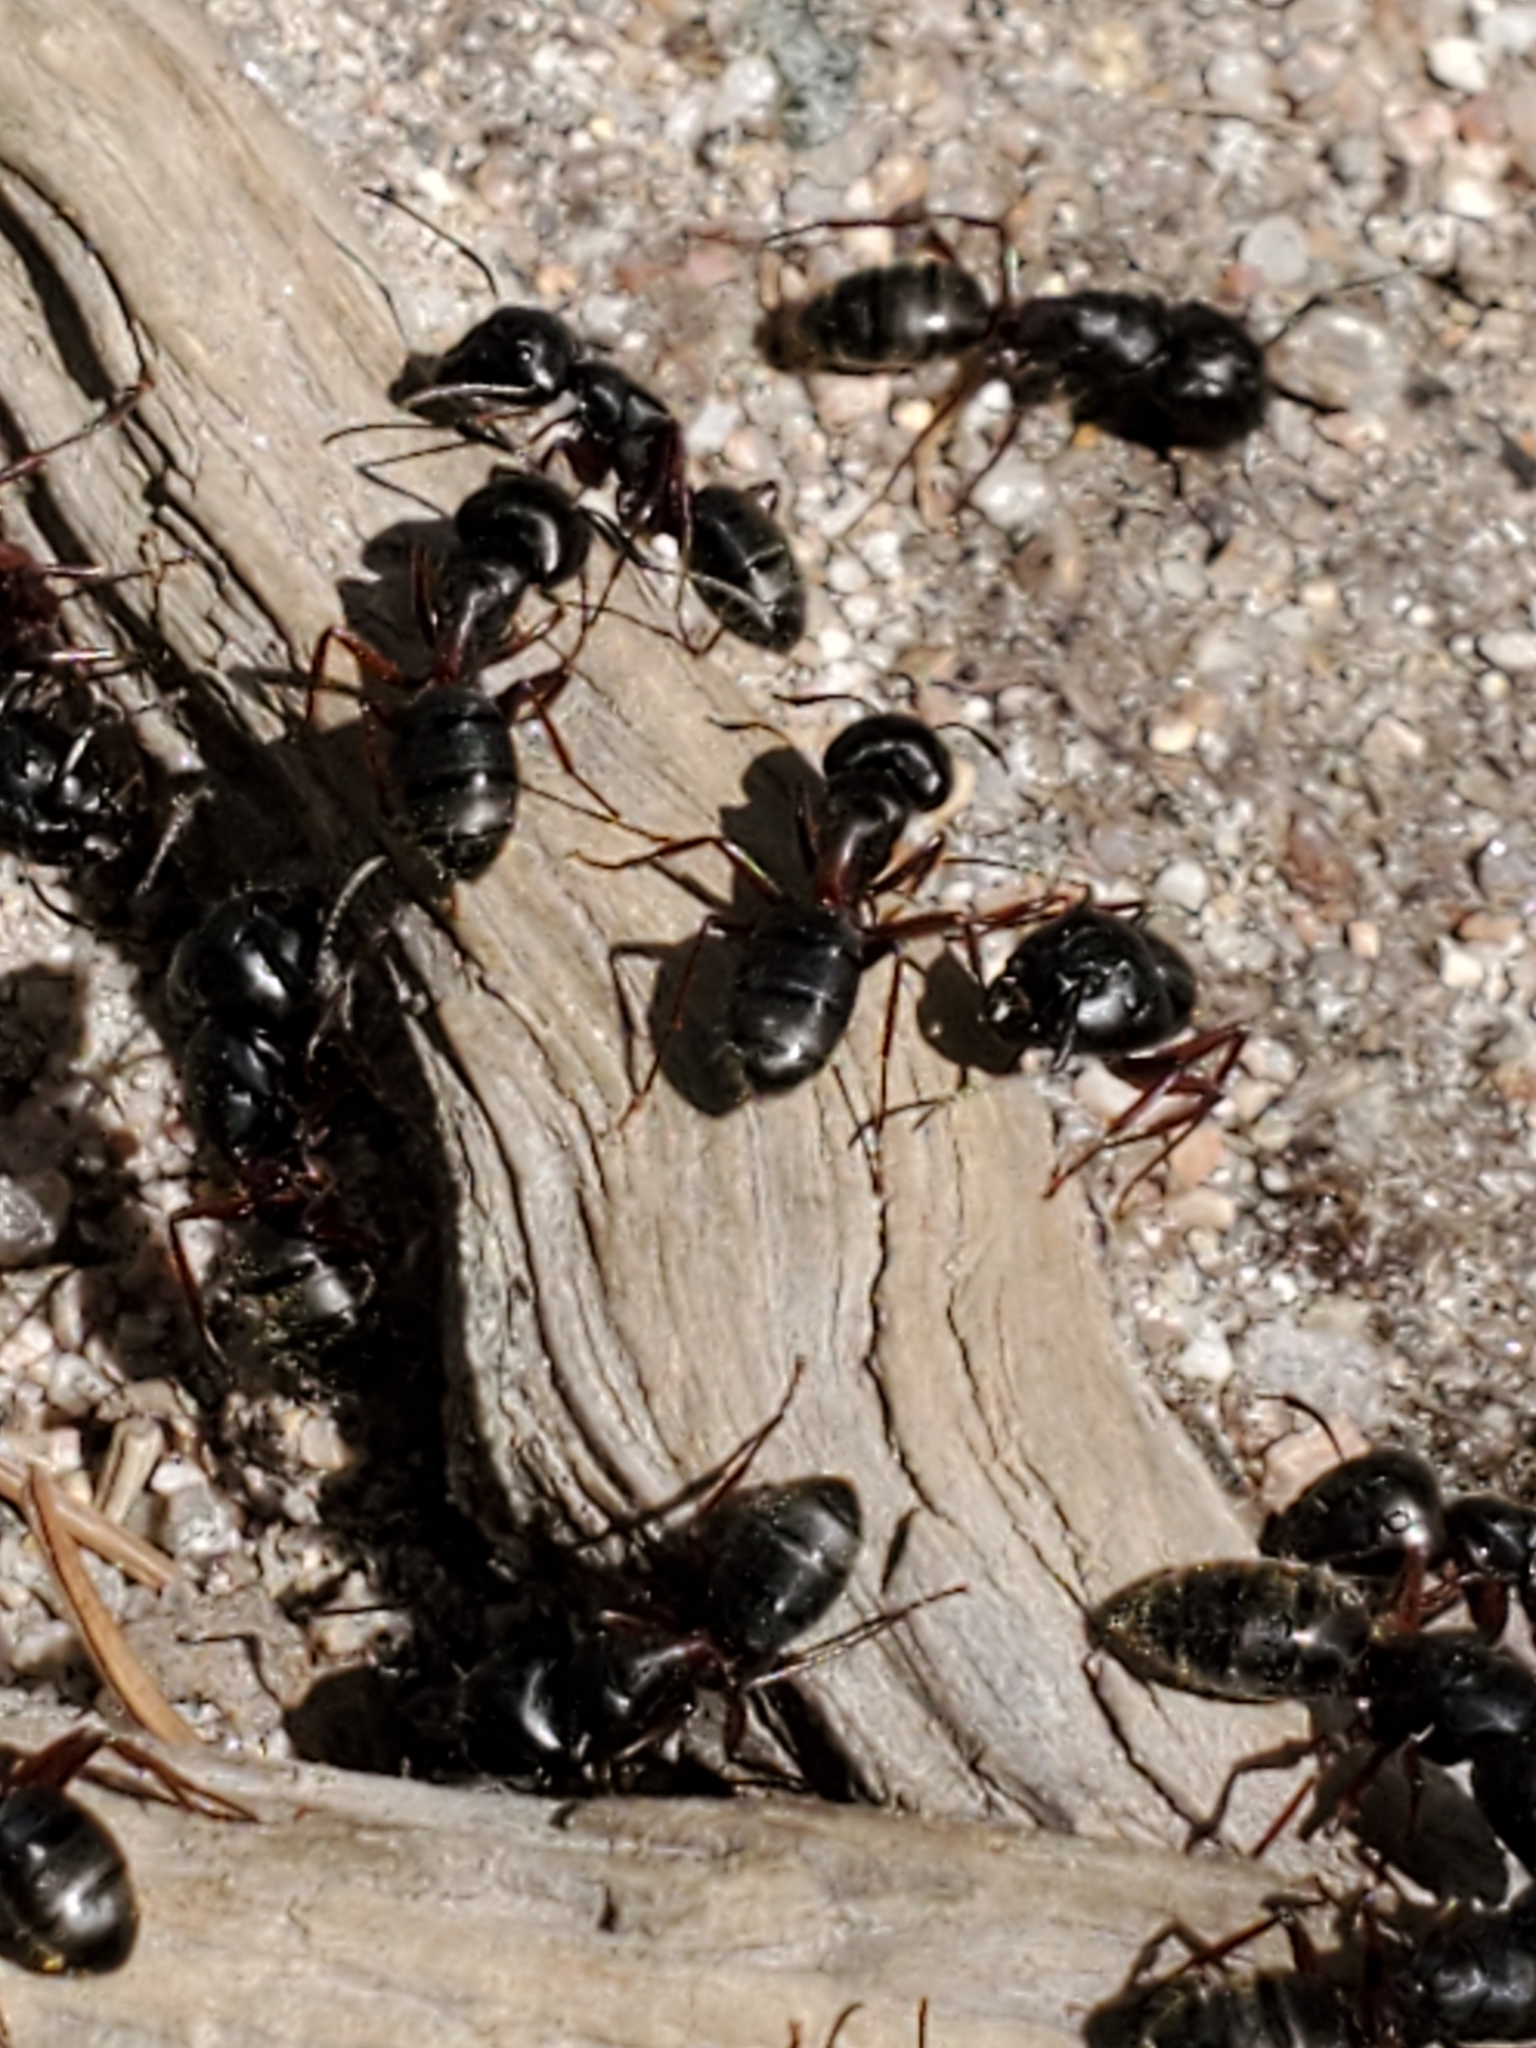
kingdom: Animalia
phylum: Arthropoda
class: Insecta
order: Hymenoptera
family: Formicidae
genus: Camponotus
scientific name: Camponotus modoc
